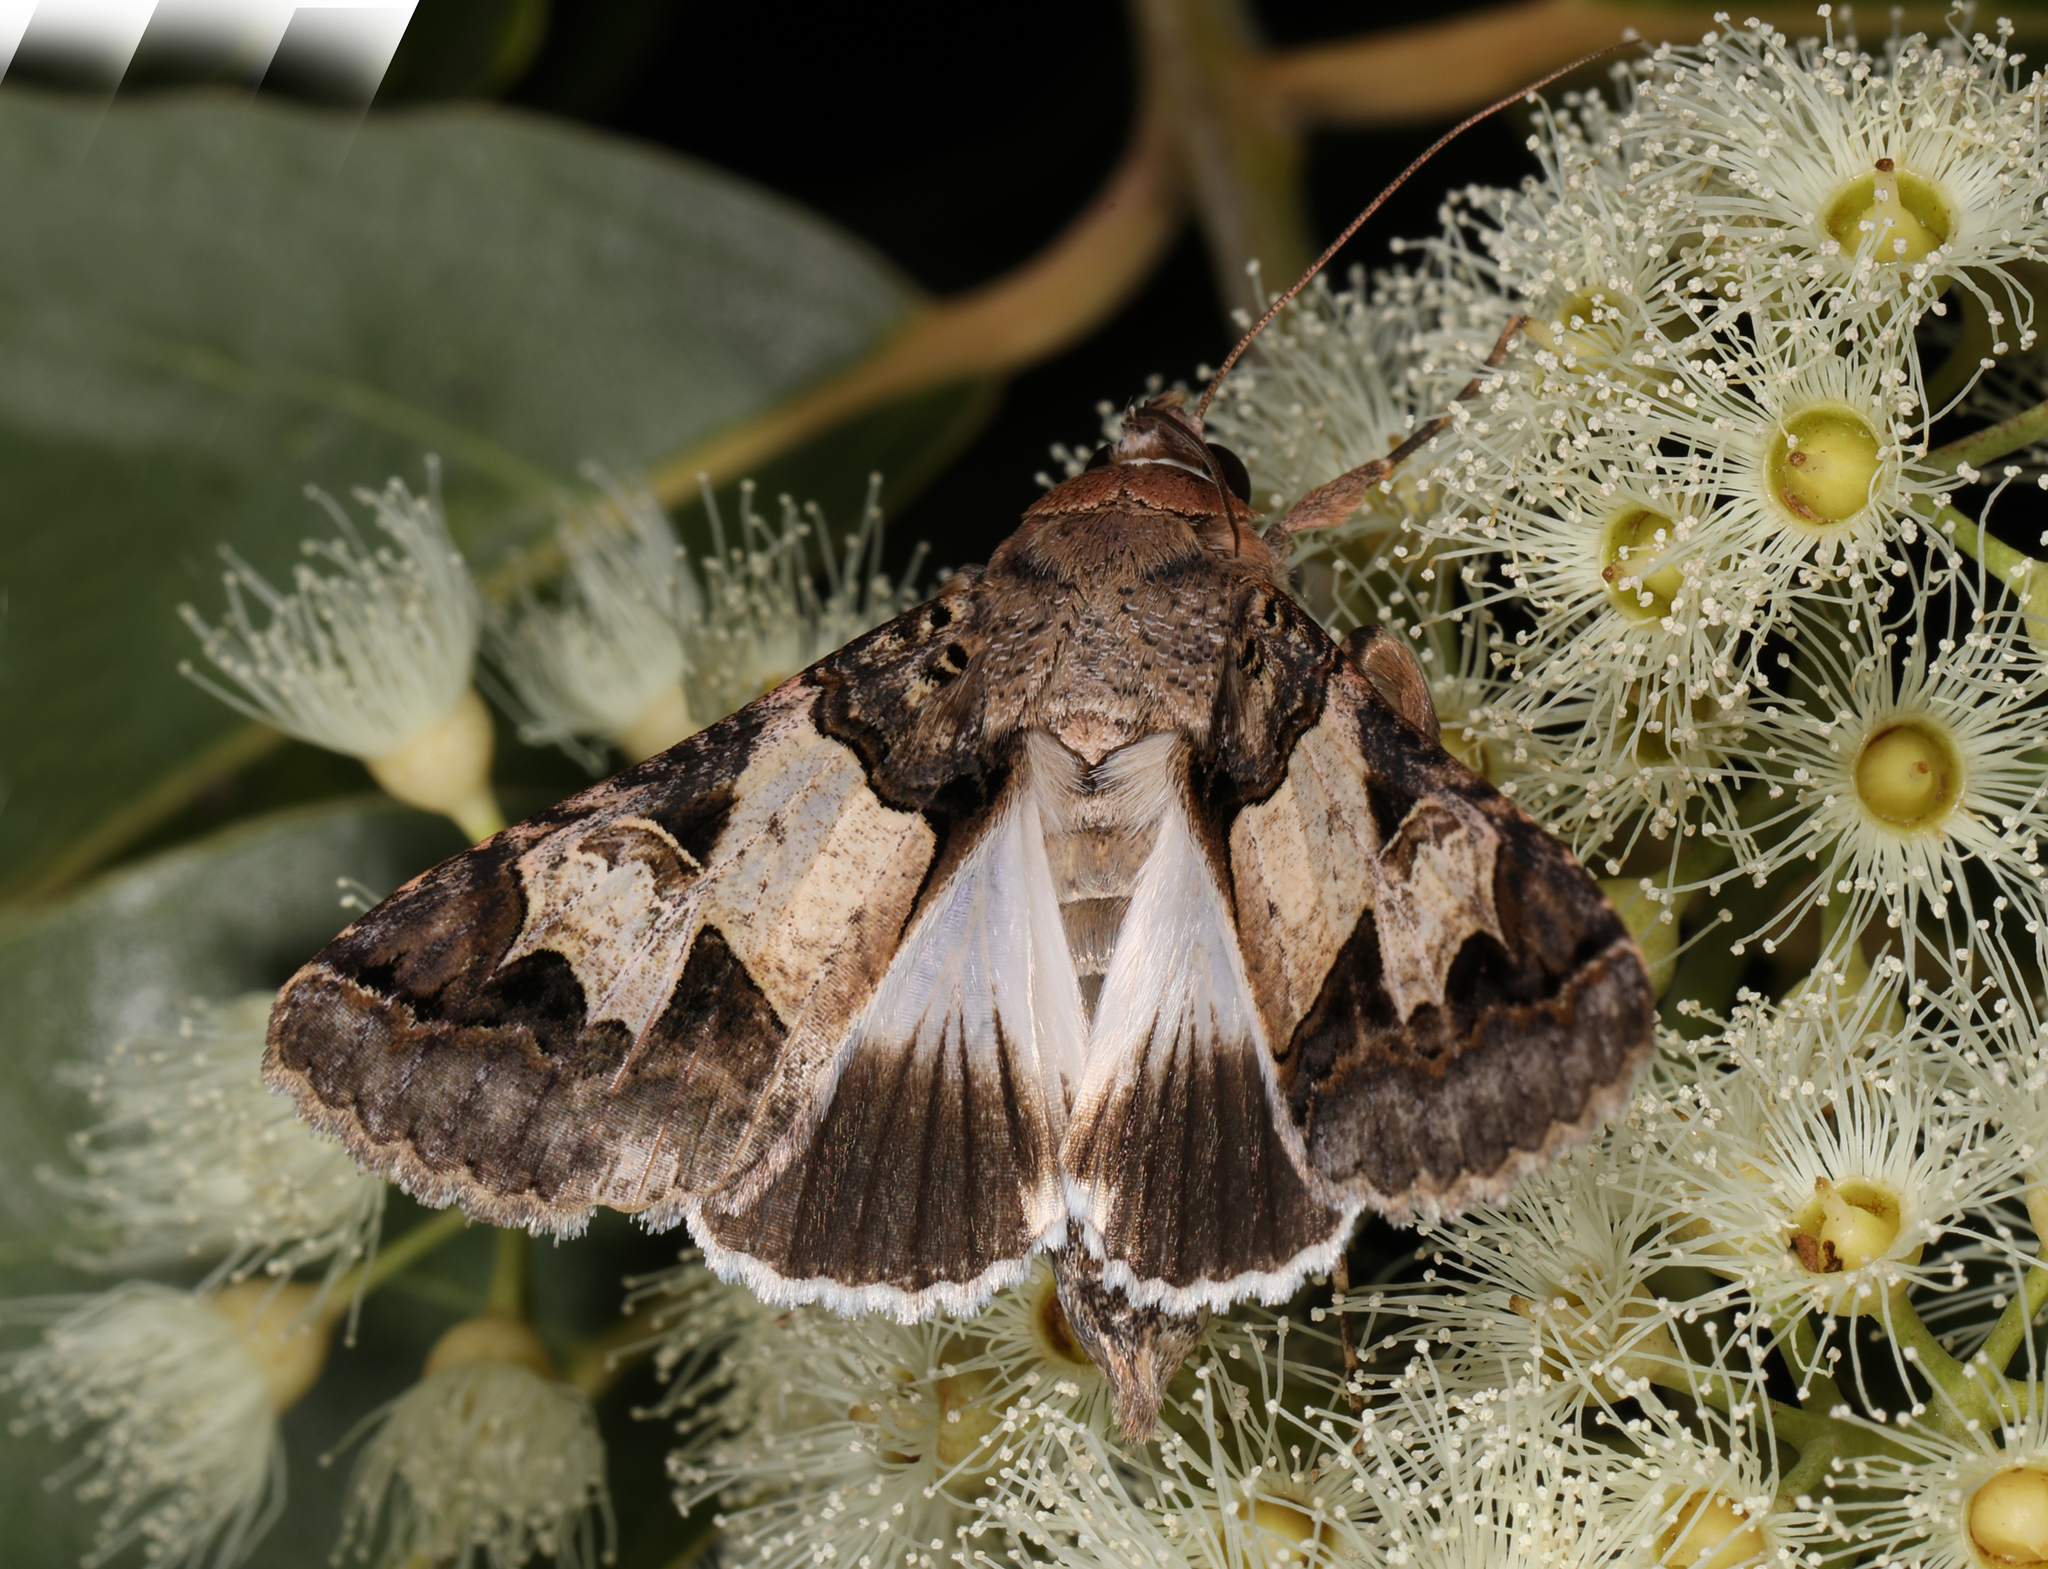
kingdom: Animalia
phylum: Arthropoda
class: Insecta
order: Lepidoptera
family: Erebidae
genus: Melipotis
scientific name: Melipotis agrotoides
